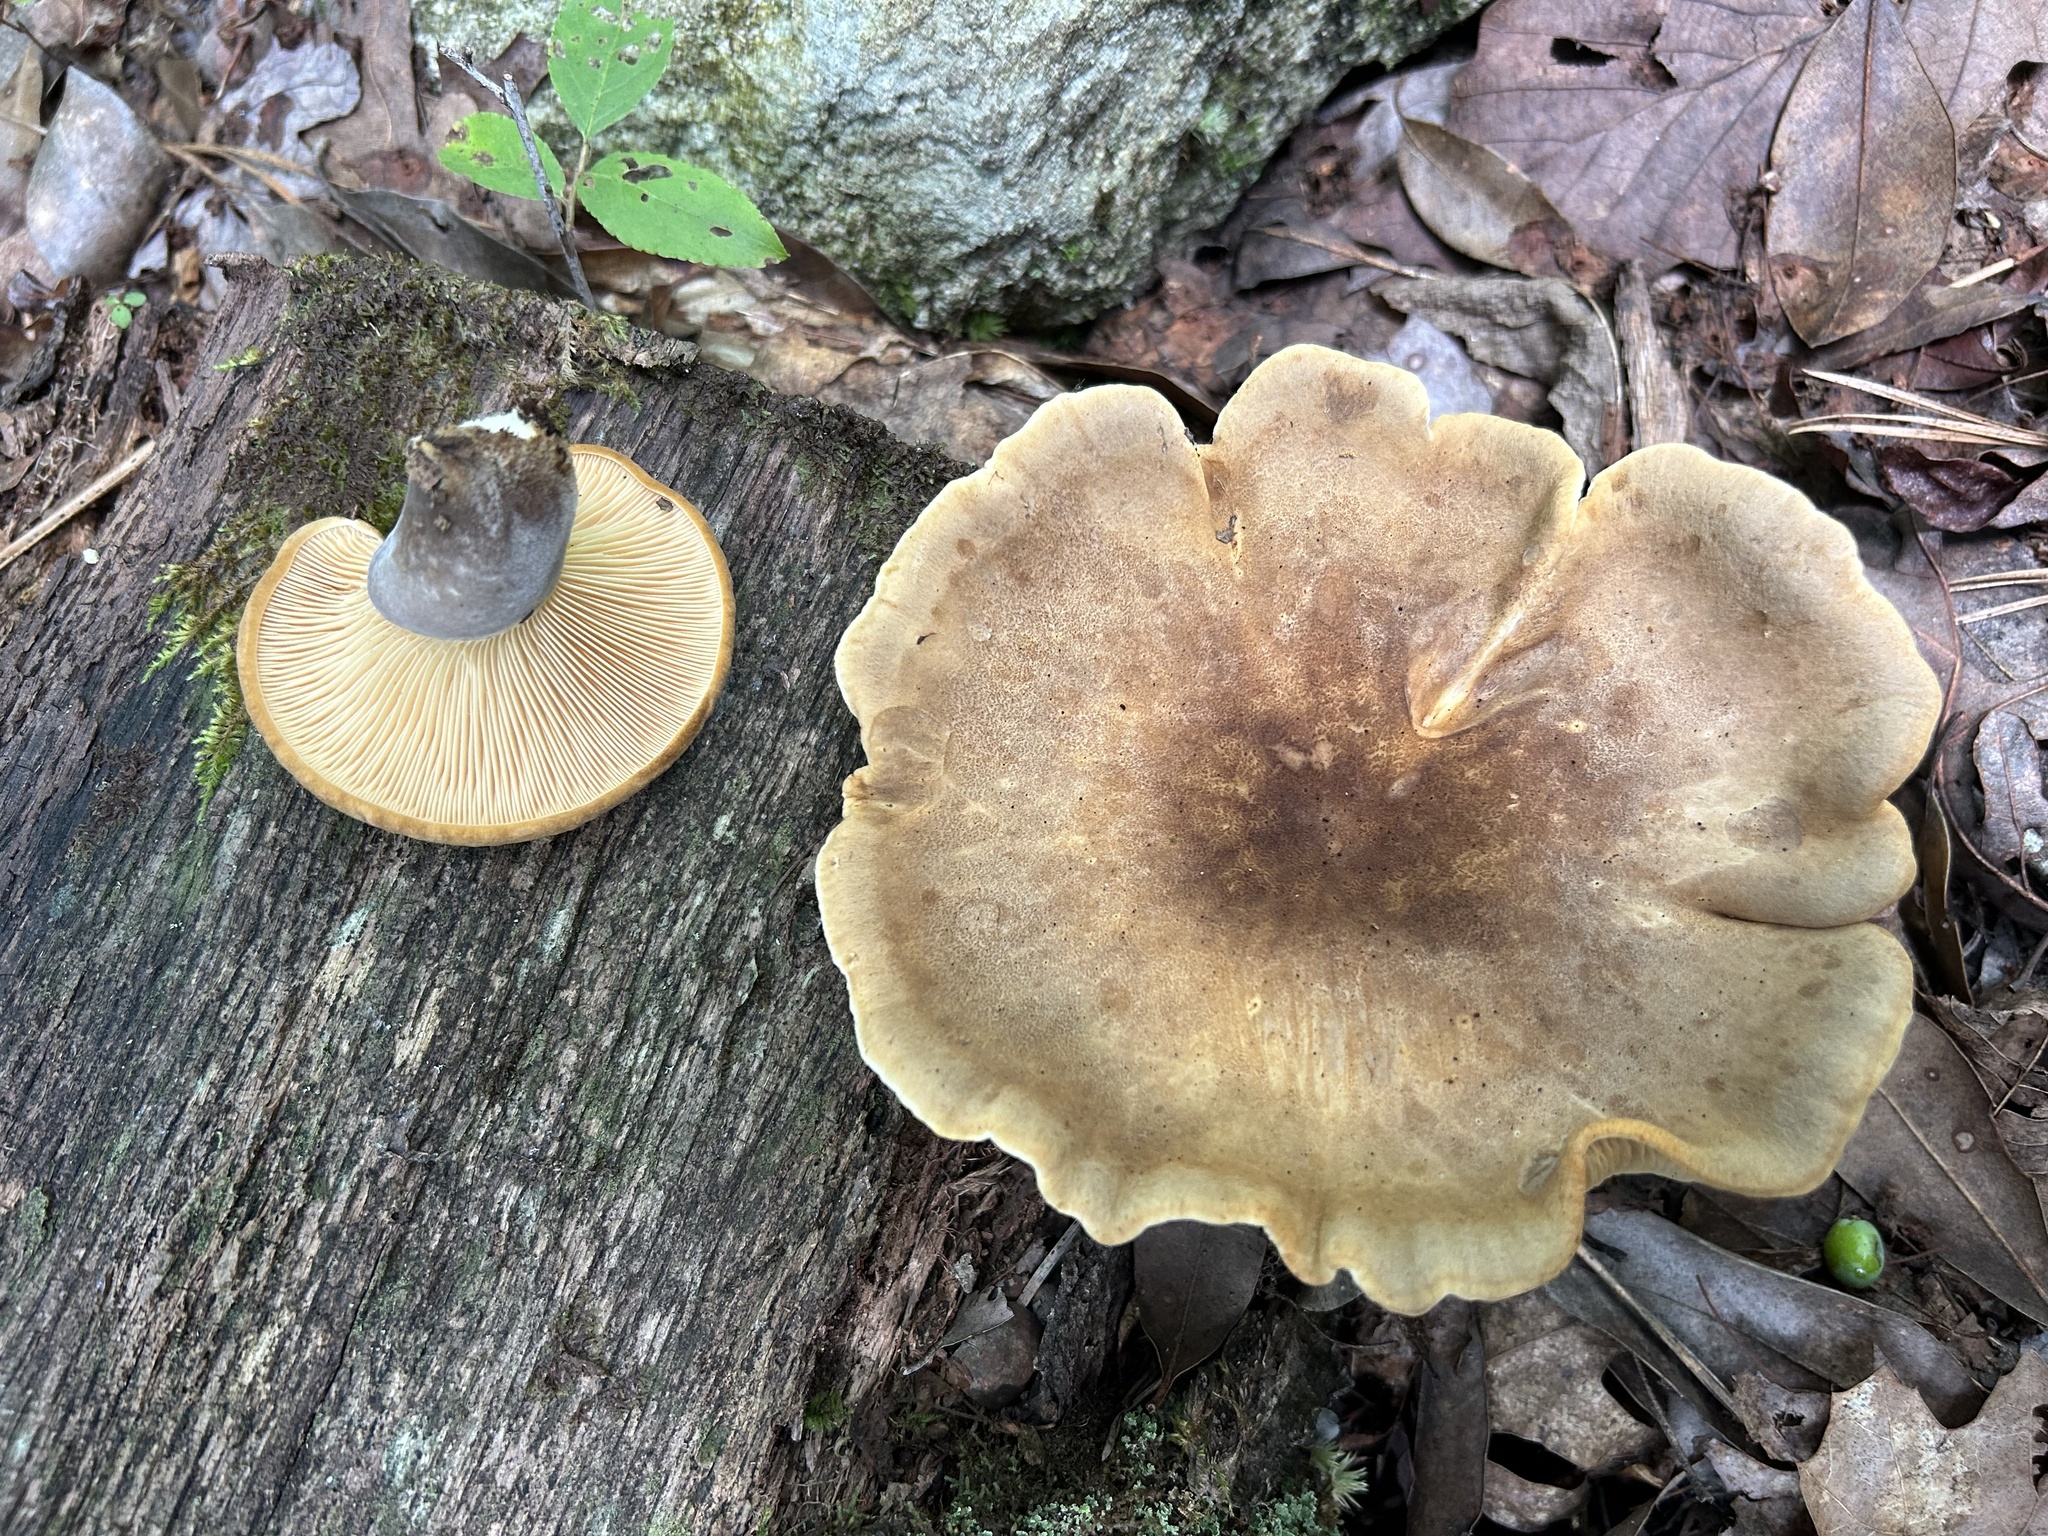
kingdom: Fungi
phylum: Basidiomycota
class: Agaricomycetes
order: Boletales
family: Tapinellaceae
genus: Tapinella
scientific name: Tapinella atrotomentosa
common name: Velvet rollrim
